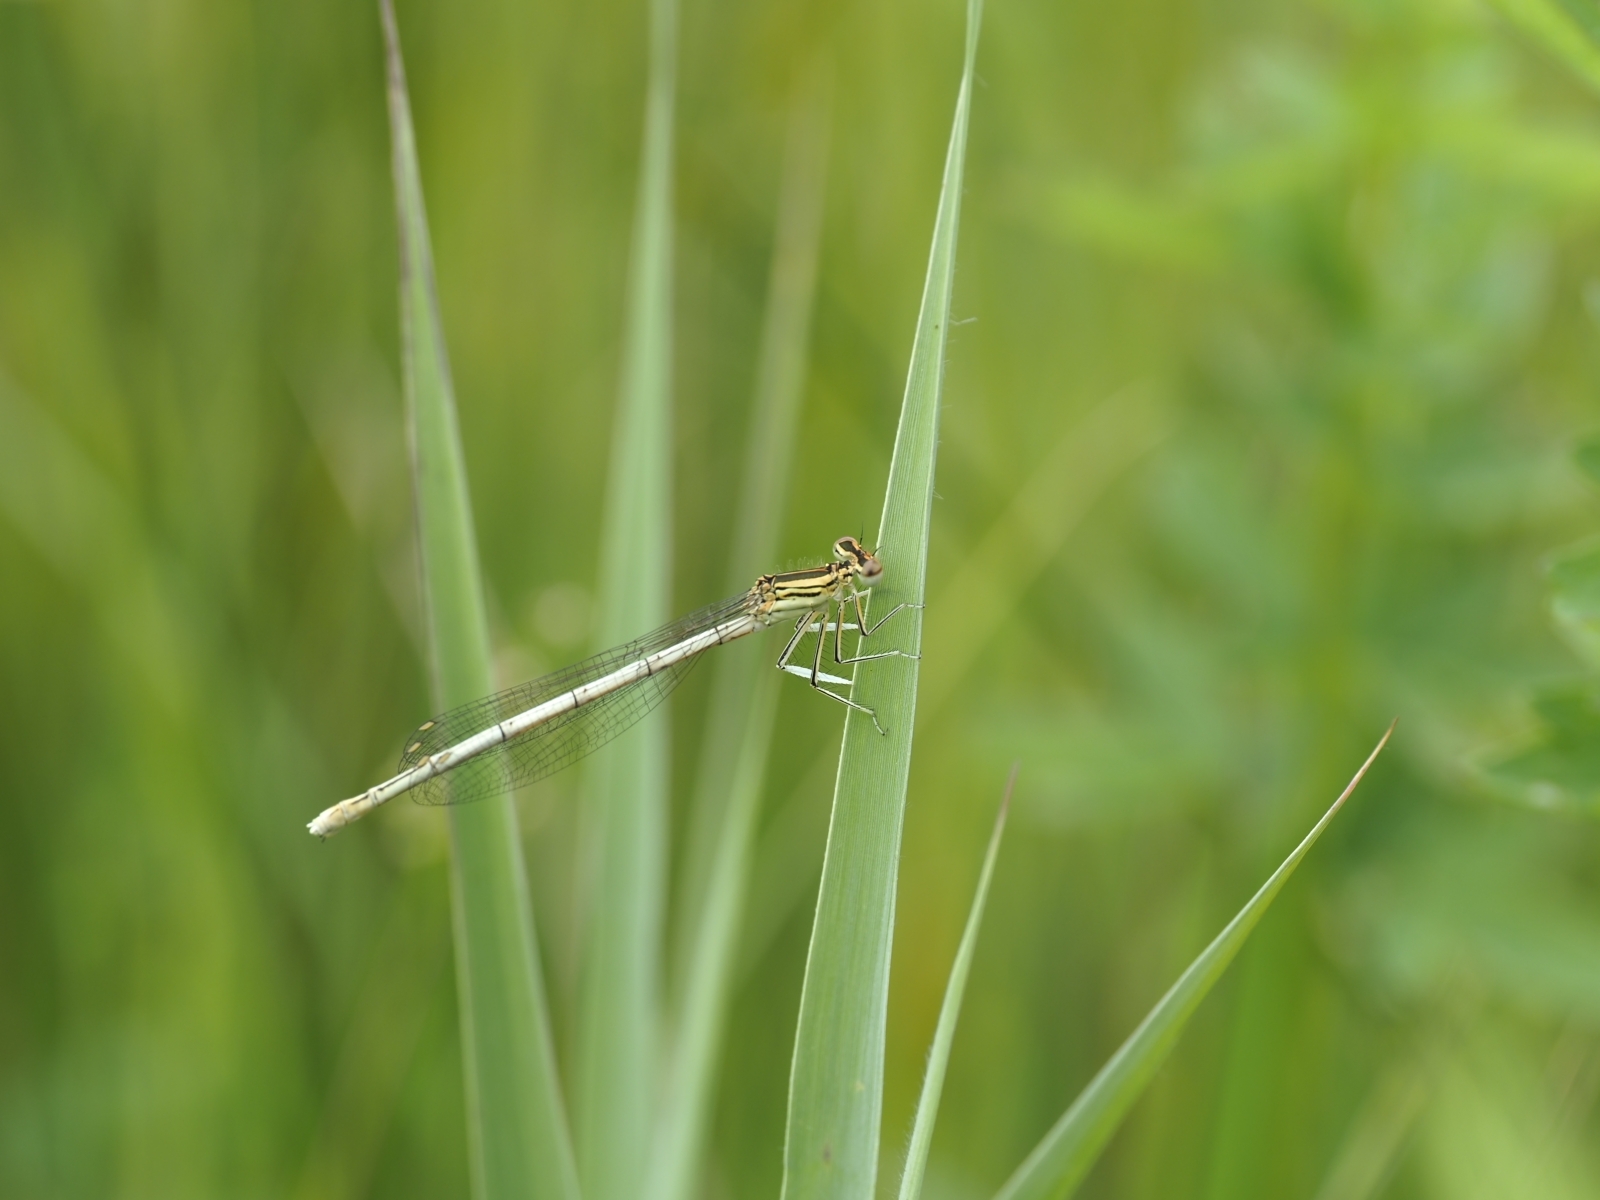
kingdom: Animalia
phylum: Arthropoda
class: Insecta
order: Odonata
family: Platycnemididae
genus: Platycnemis
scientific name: Platycnemis pennipes
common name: White-legged damselfly
